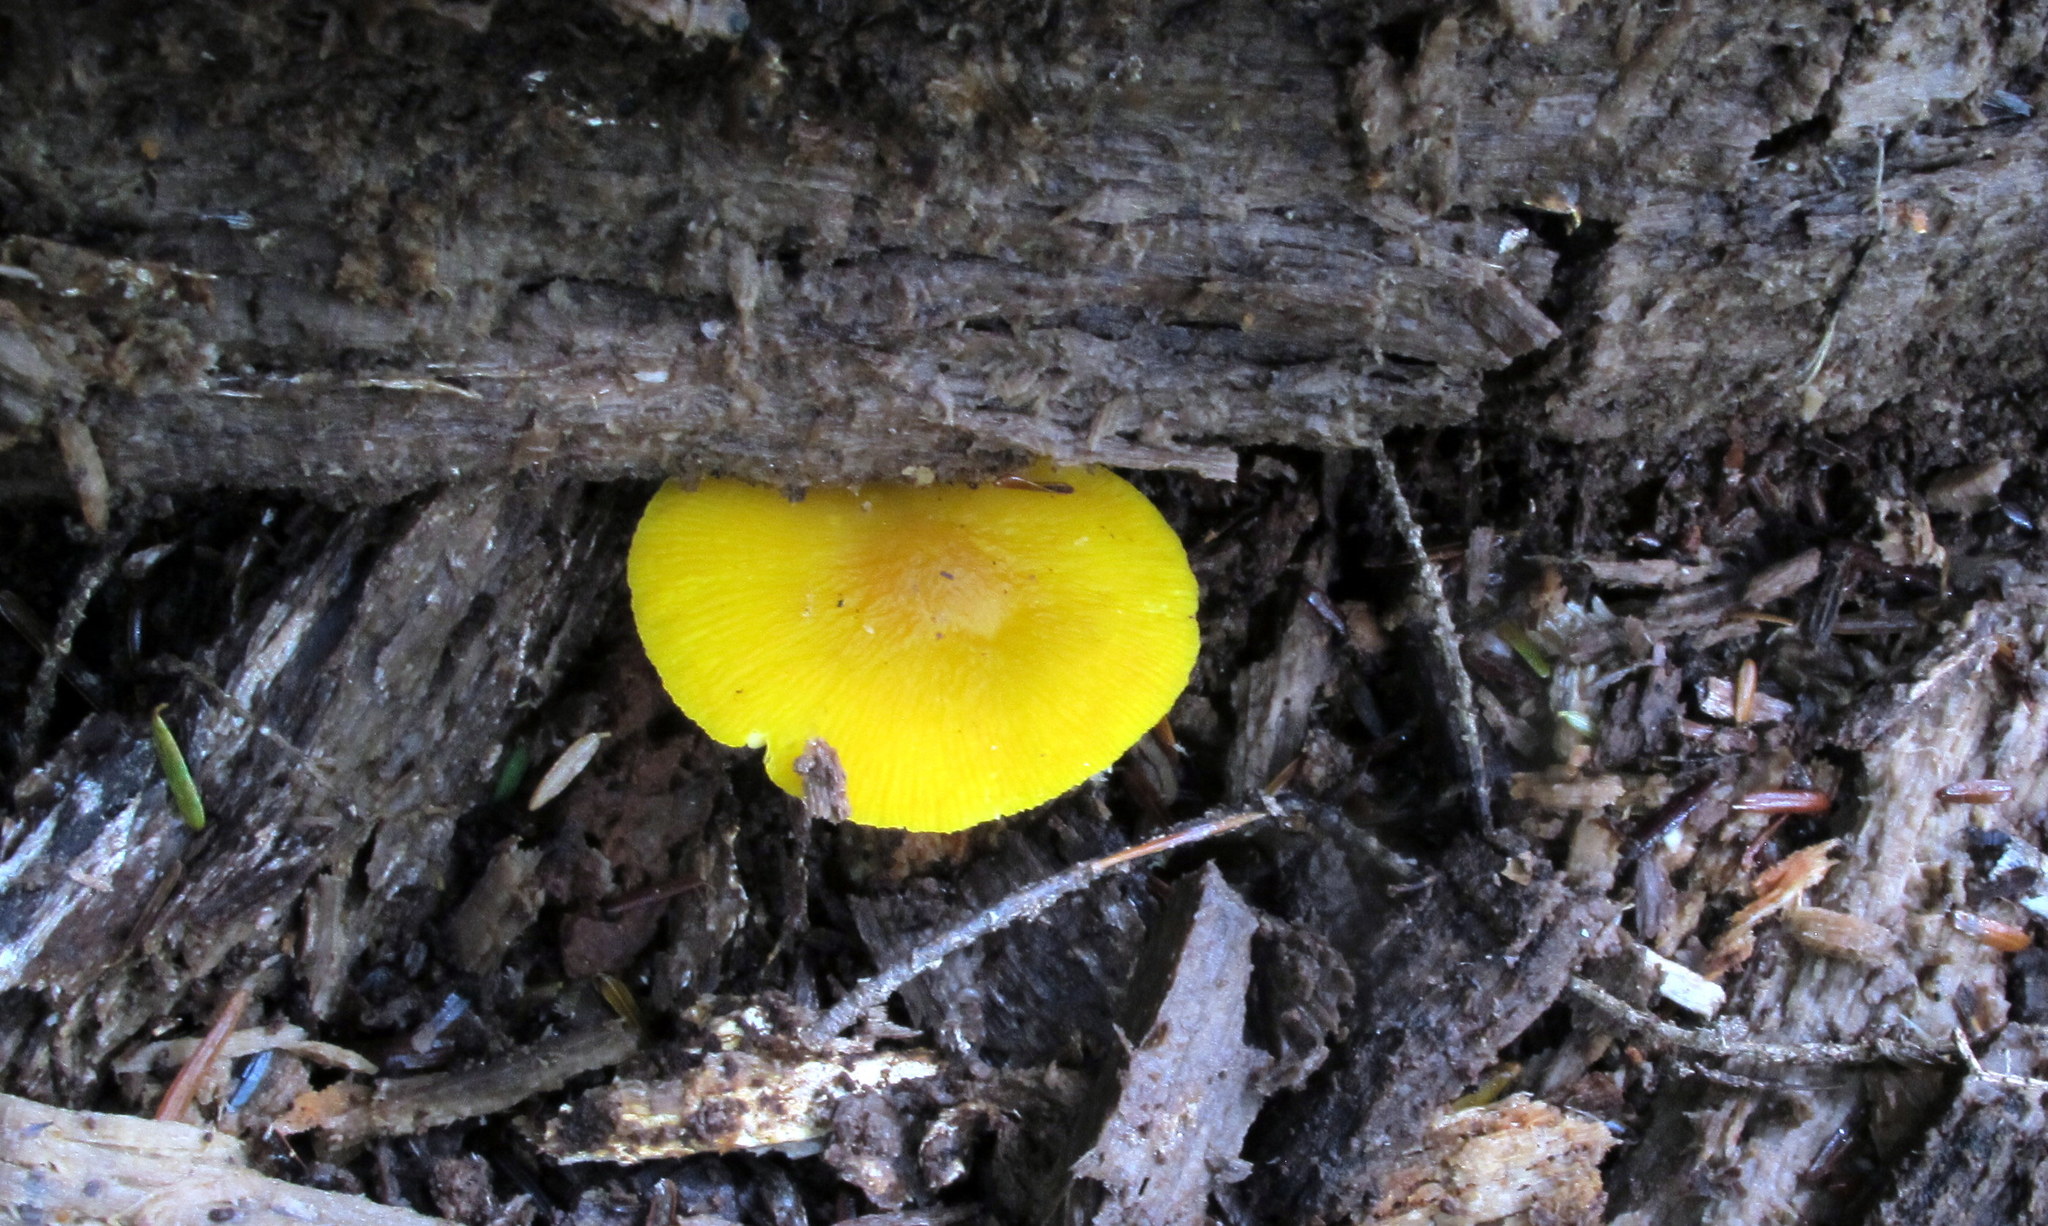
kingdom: Fungi
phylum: Basidiomycota
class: Agaricomycetes
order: Agaricales
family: Pluteaceae
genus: Pluteus
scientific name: Pluteus chrysophlebius
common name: Yellow deer mushroom
